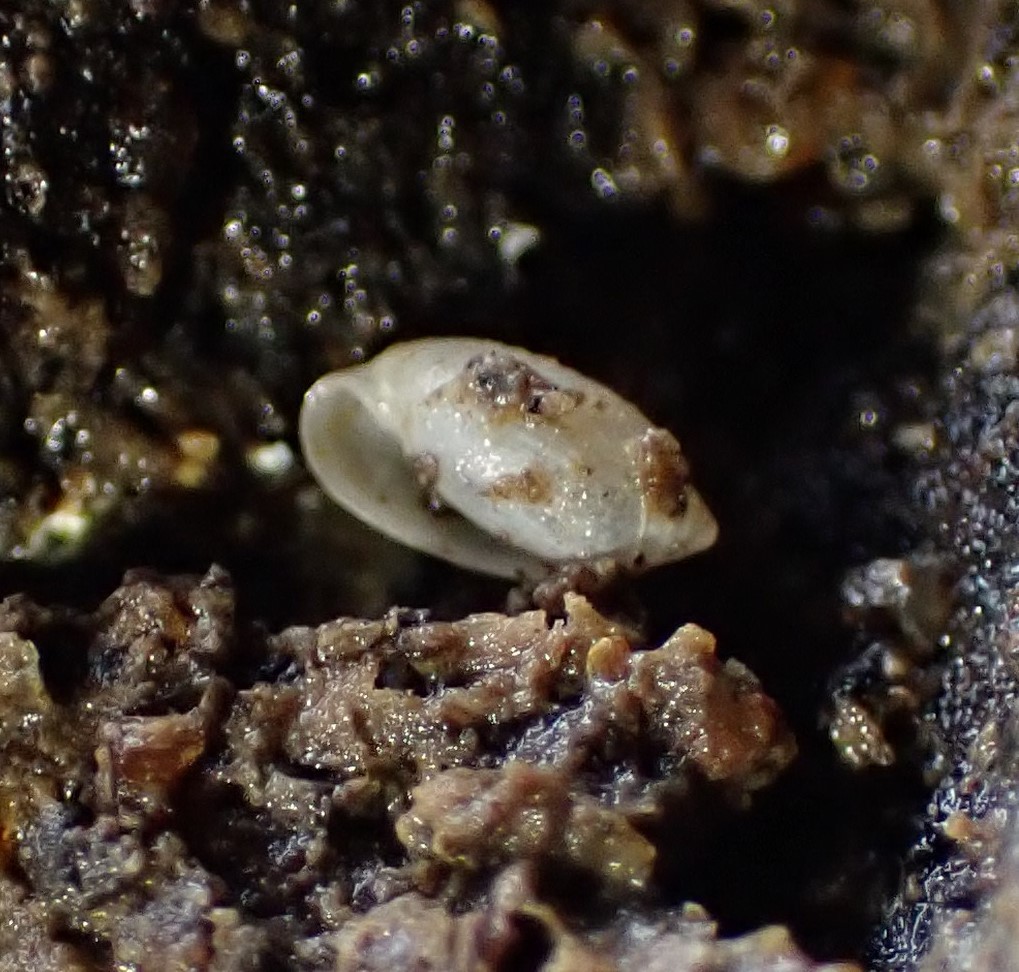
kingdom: Animalia
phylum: Mollusca
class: Gastropoda
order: Ellobiida
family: Ellobiidae
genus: Microtralia
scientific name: Microtralia insularis
